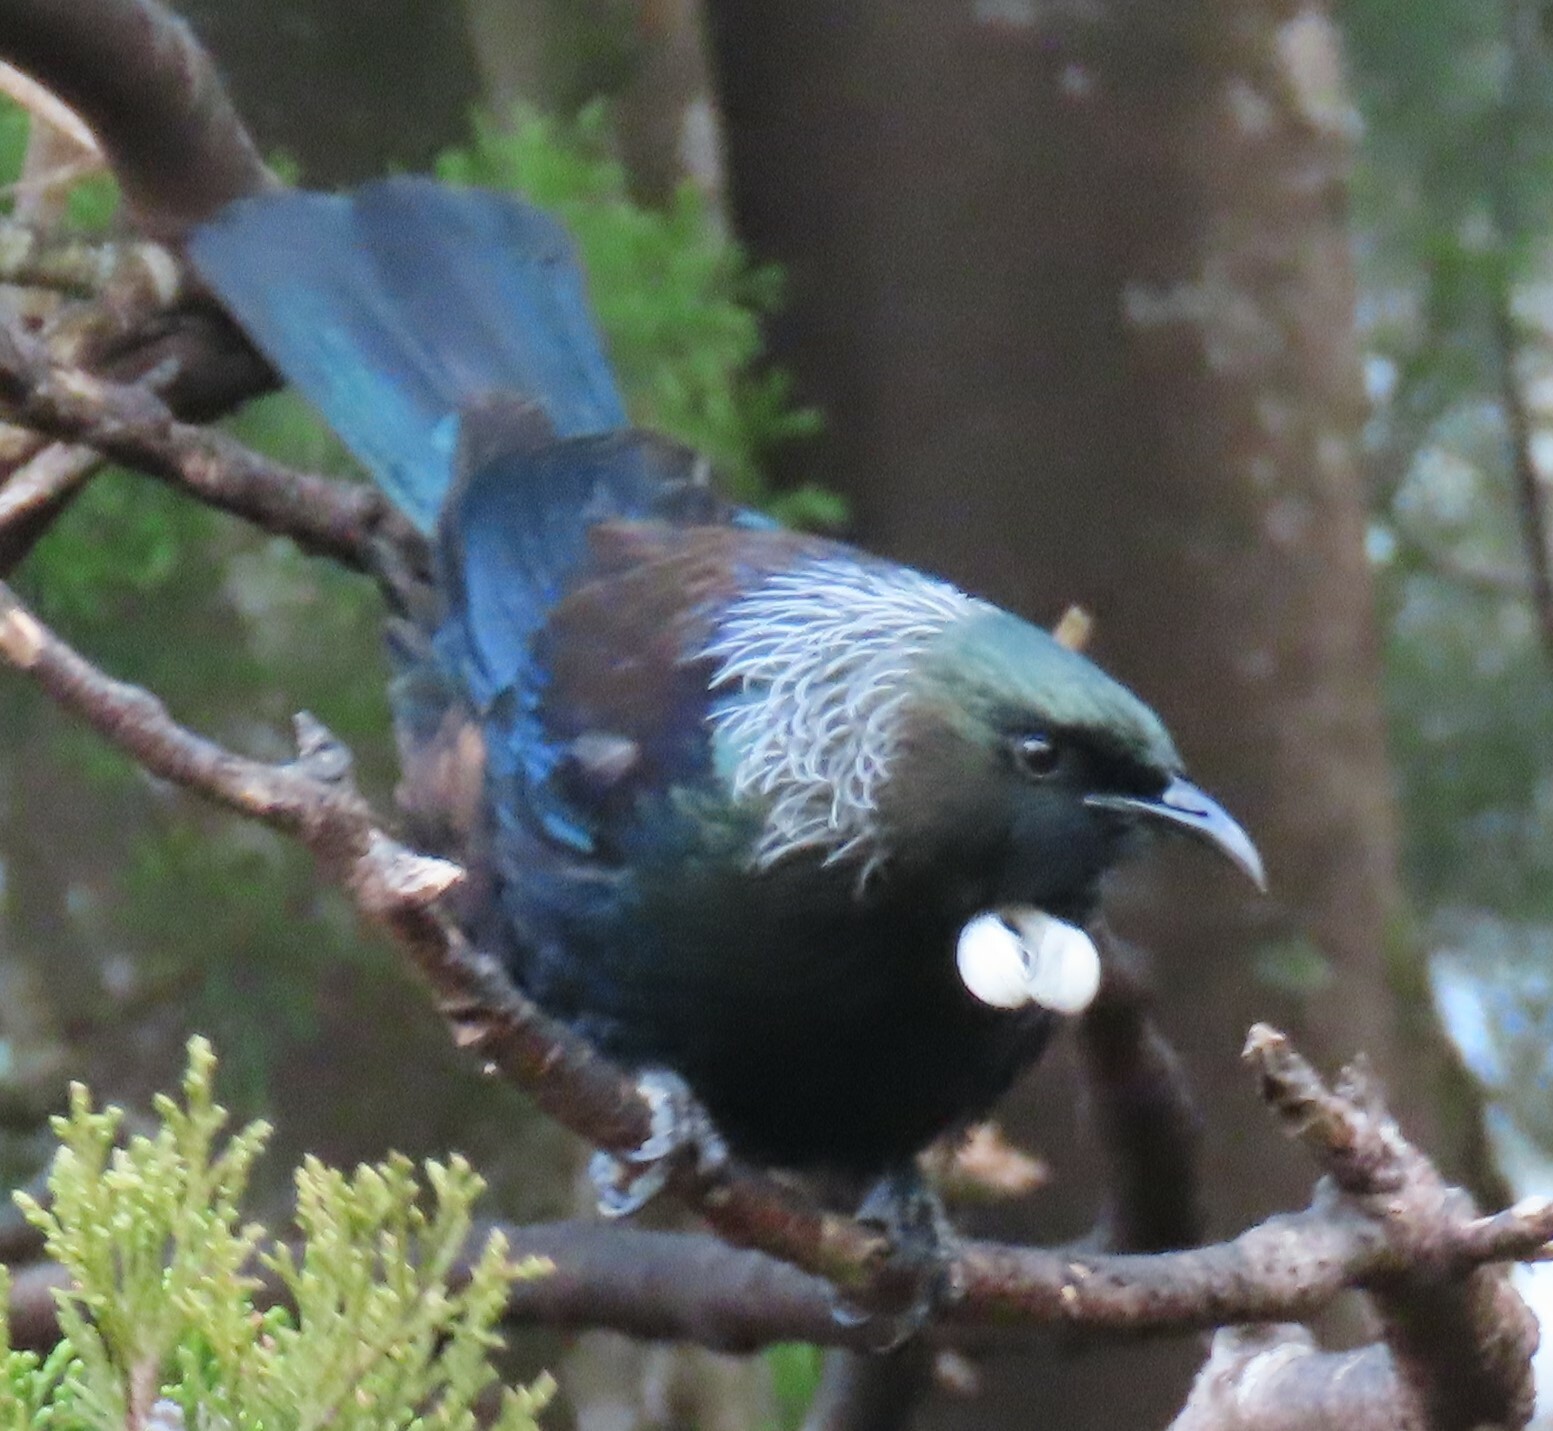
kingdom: Animalia
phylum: Chordata
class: Aves
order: Passeriformes
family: Meliphagidae
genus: Prosthemadera
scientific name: Prosthemadera novaeseelandiae
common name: Tui
